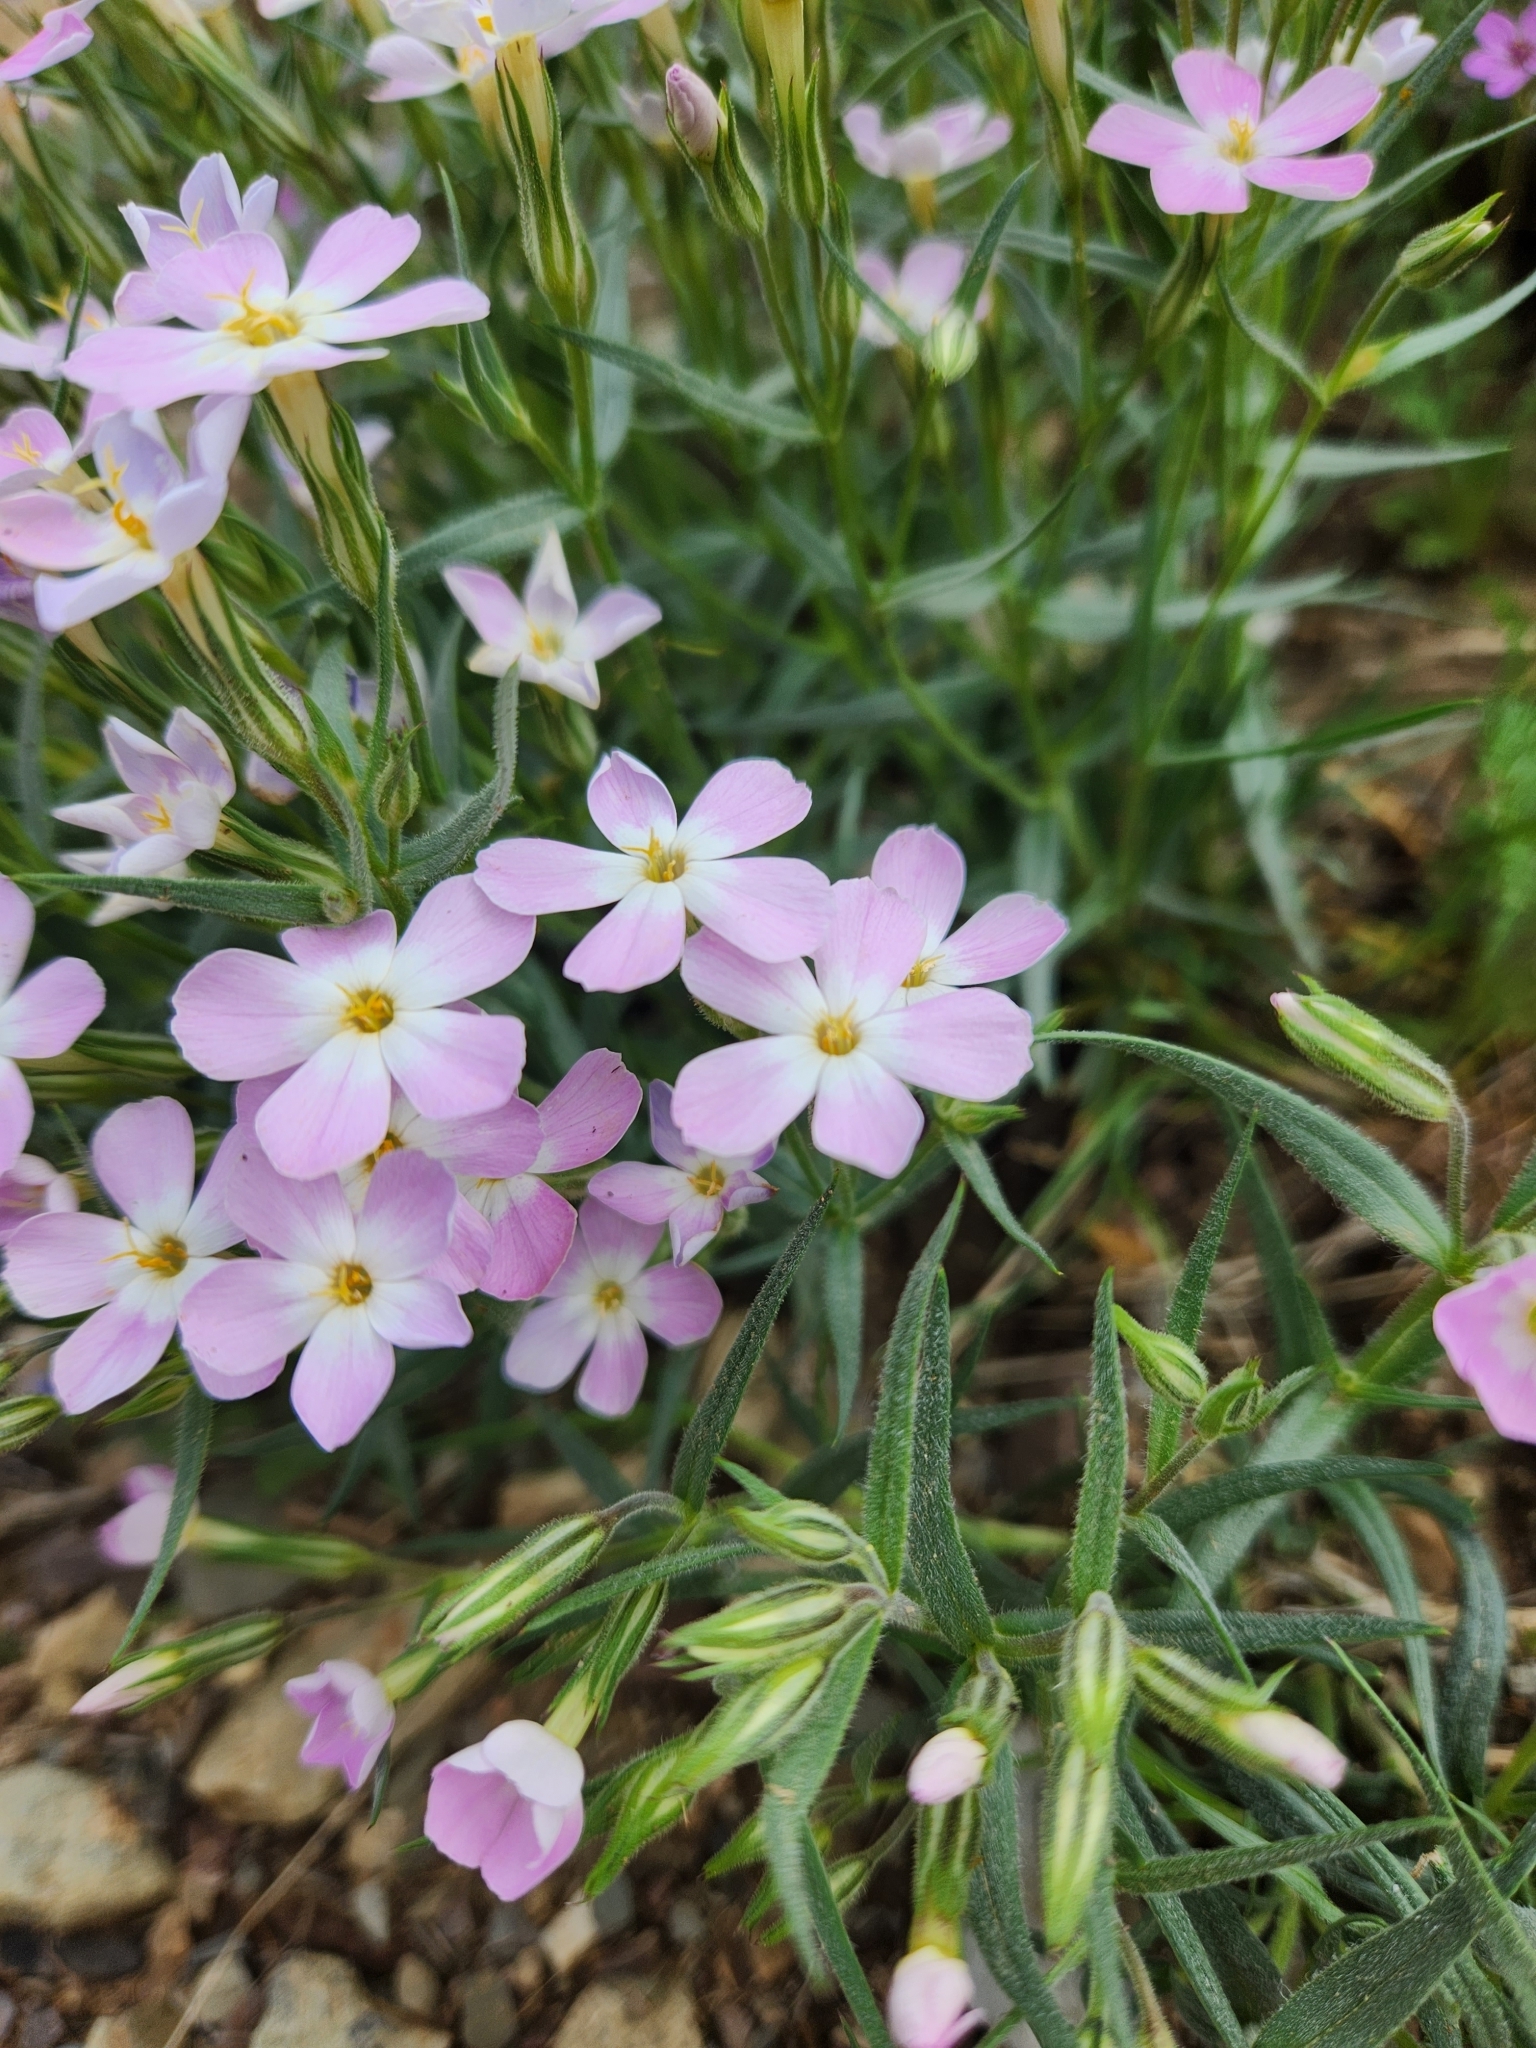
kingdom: Plantae
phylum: Tracheophyta
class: Magnoliopsida
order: Ericales
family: Polemoniaceae
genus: Phlox
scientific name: Phlox longifolia
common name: Longleaf phlox
